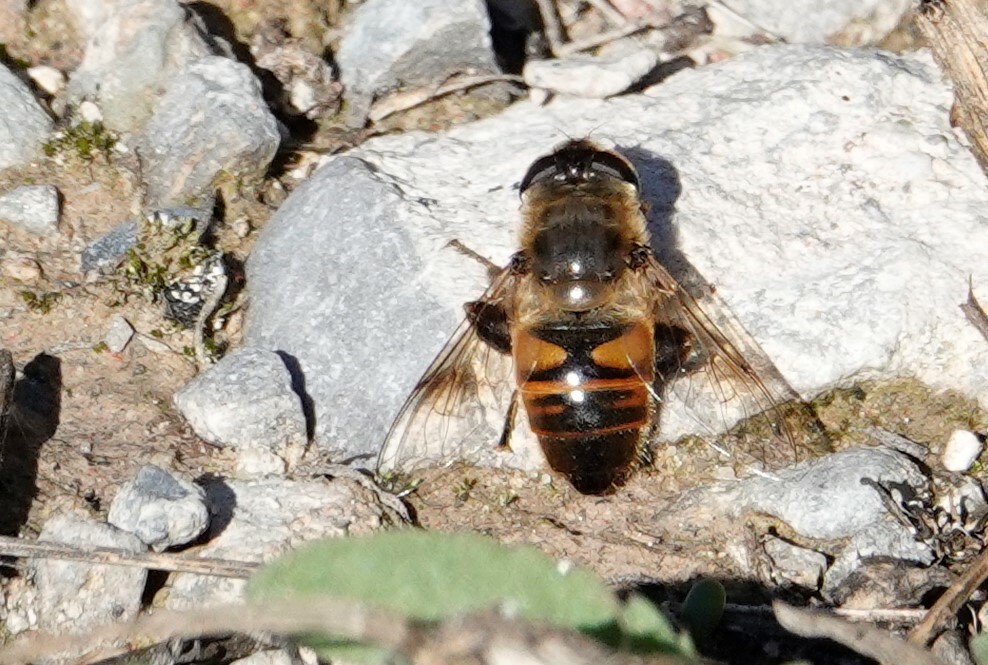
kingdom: Animalia
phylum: Arthropoda
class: Insecta
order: Diptera
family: Syrphidae
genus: Eristalis
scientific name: Eristalis tenax
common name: Drone fly
